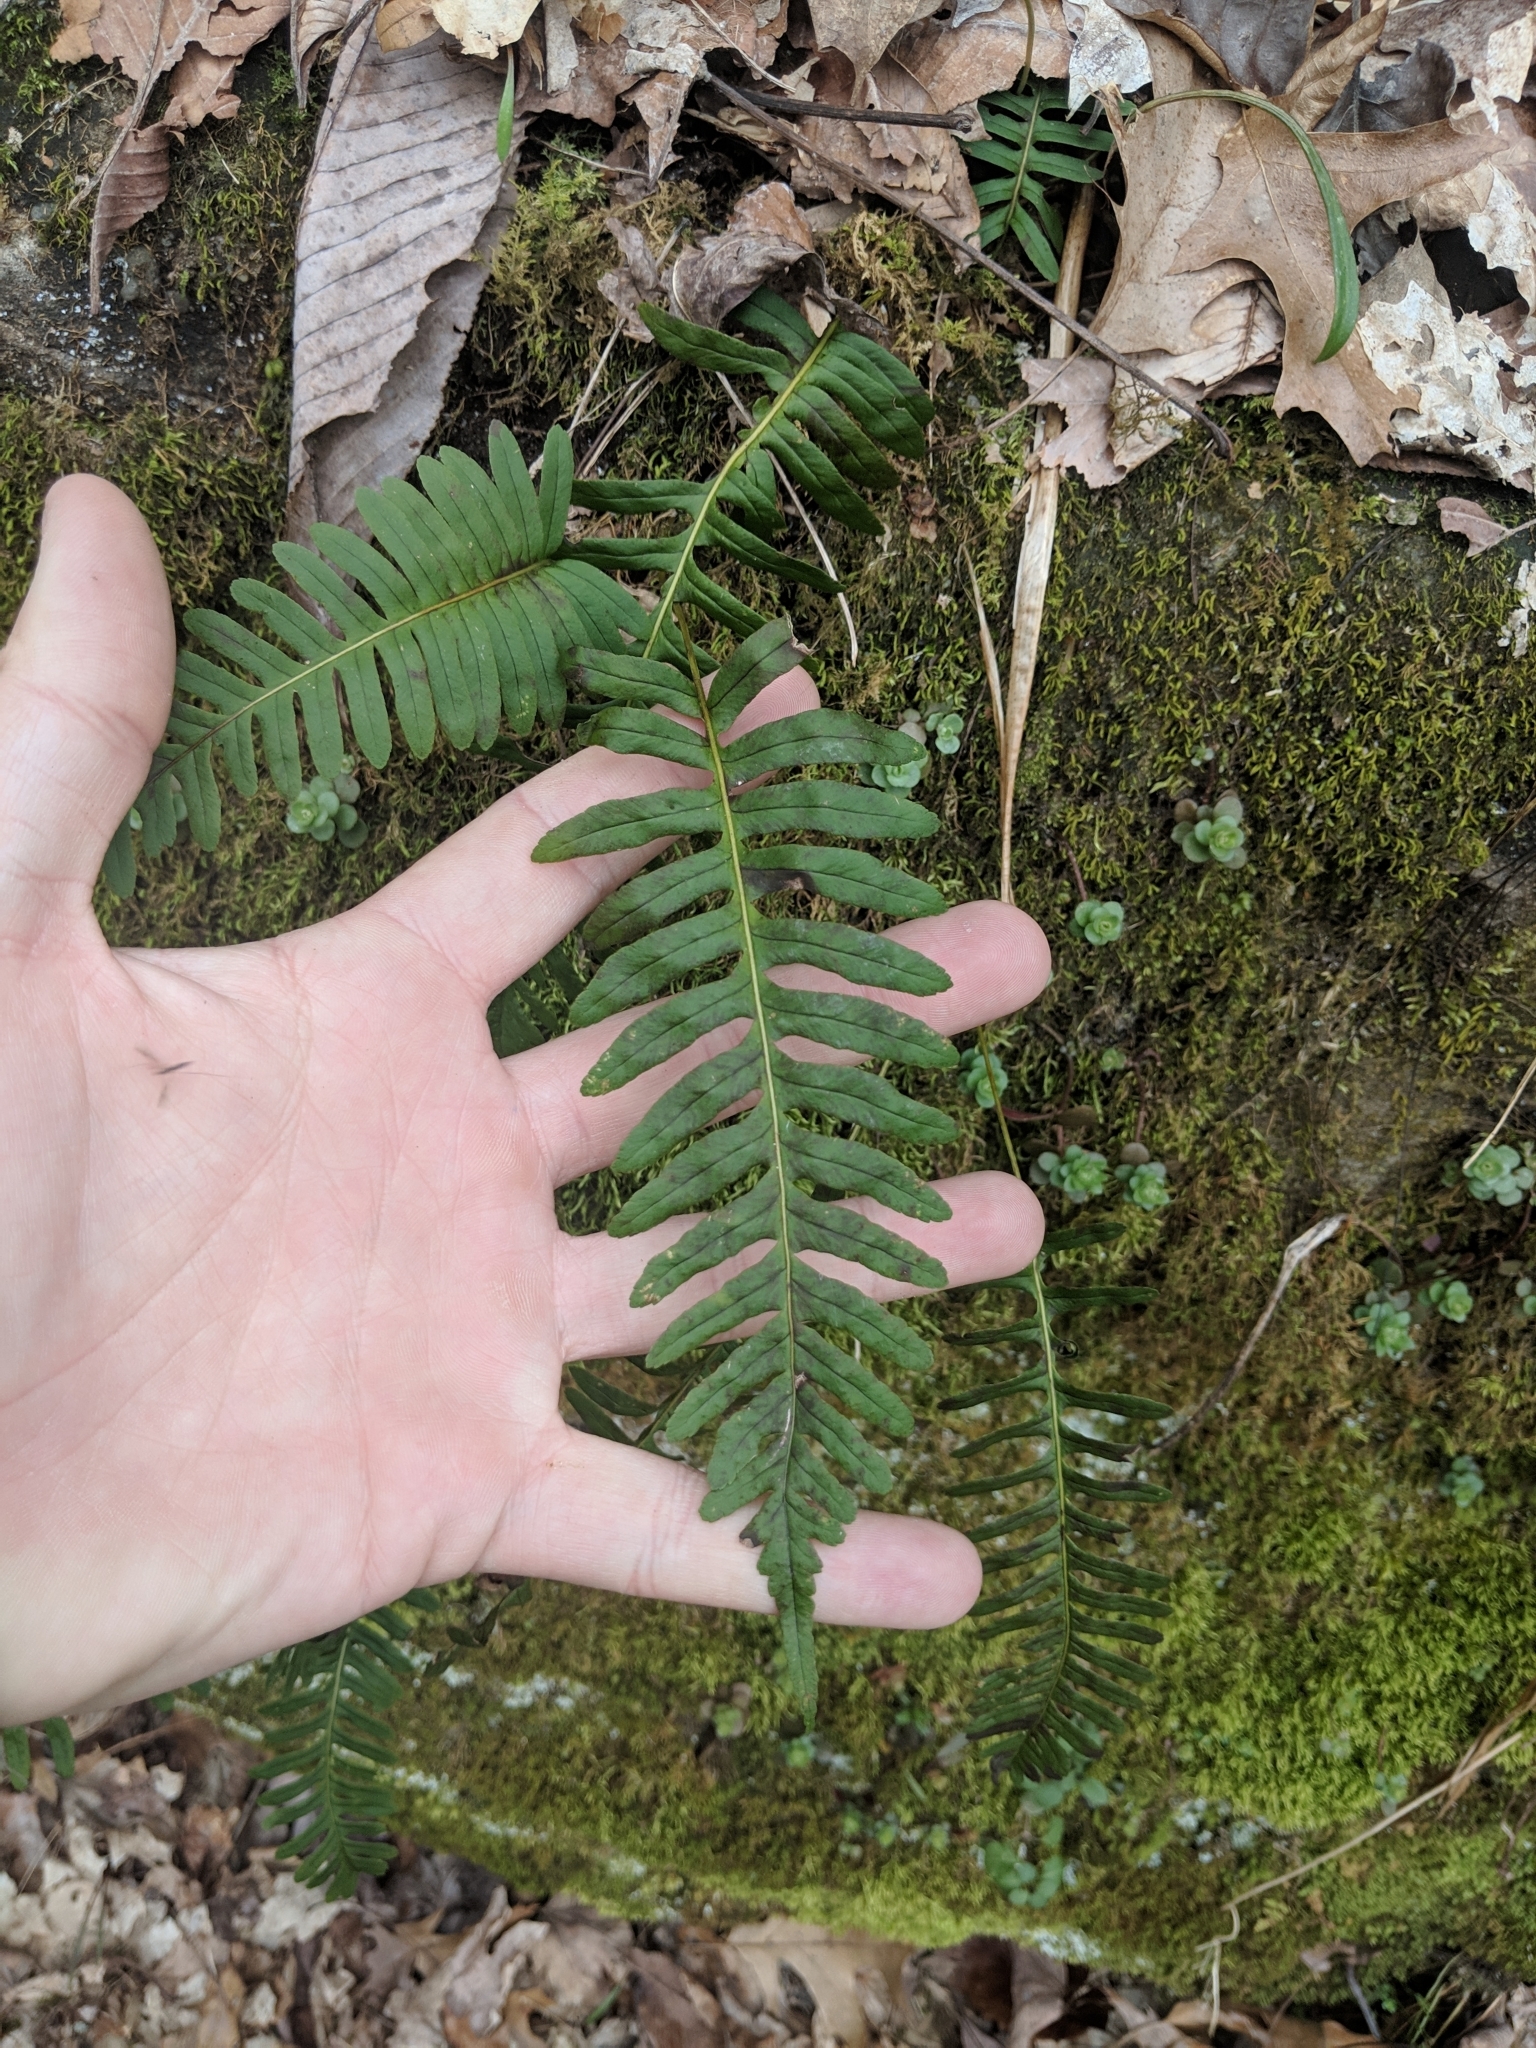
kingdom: Plantae
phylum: Tracheophyta
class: Polypodiopsida
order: Polypodiales
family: Polypodiaceae
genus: Polypodium
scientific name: Polypodium virginianum
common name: American wall fern
